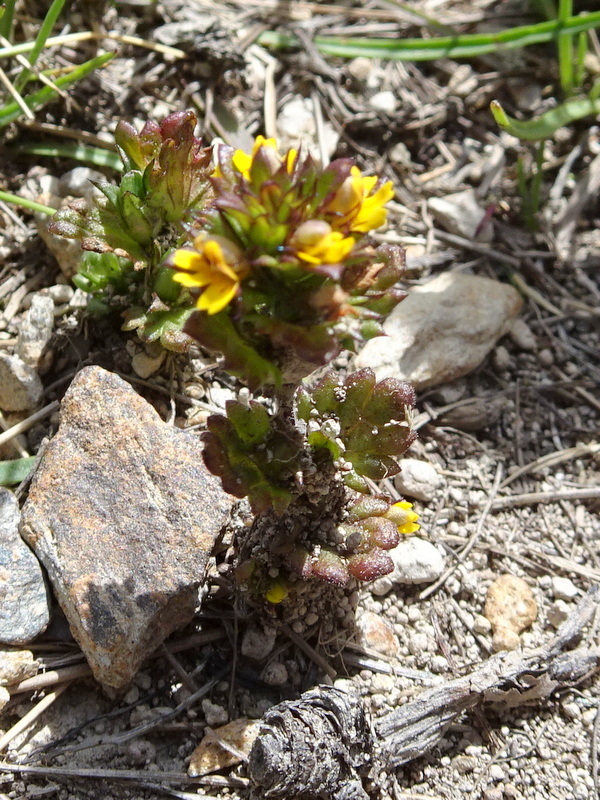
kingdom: Plantae
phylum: Tracheophyta
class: Magnoliopsida
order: Lamiales
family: Orobanchaceae
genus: Euphrasia
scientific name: Euphrasia minima
